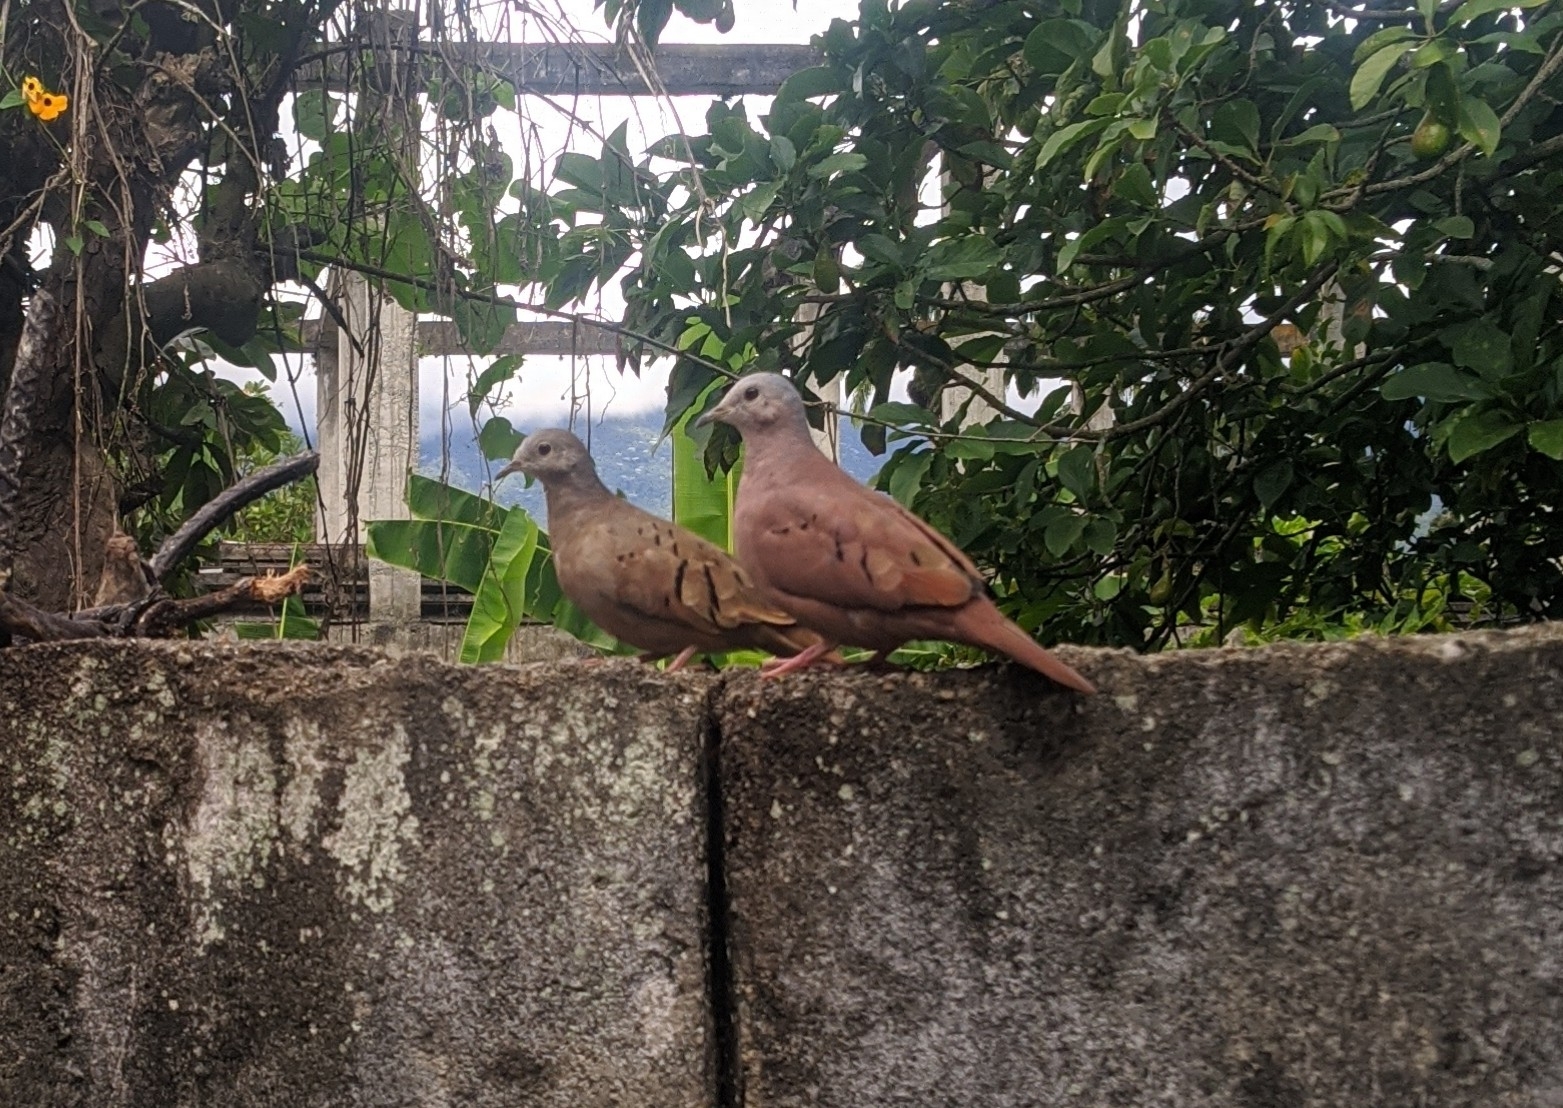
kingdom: Animalia
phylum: Chordata
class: Aves
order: Columbiformes
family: Columbidae
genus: Columbina
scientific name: Columbina talpacoti
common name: Ruddy ground dove
